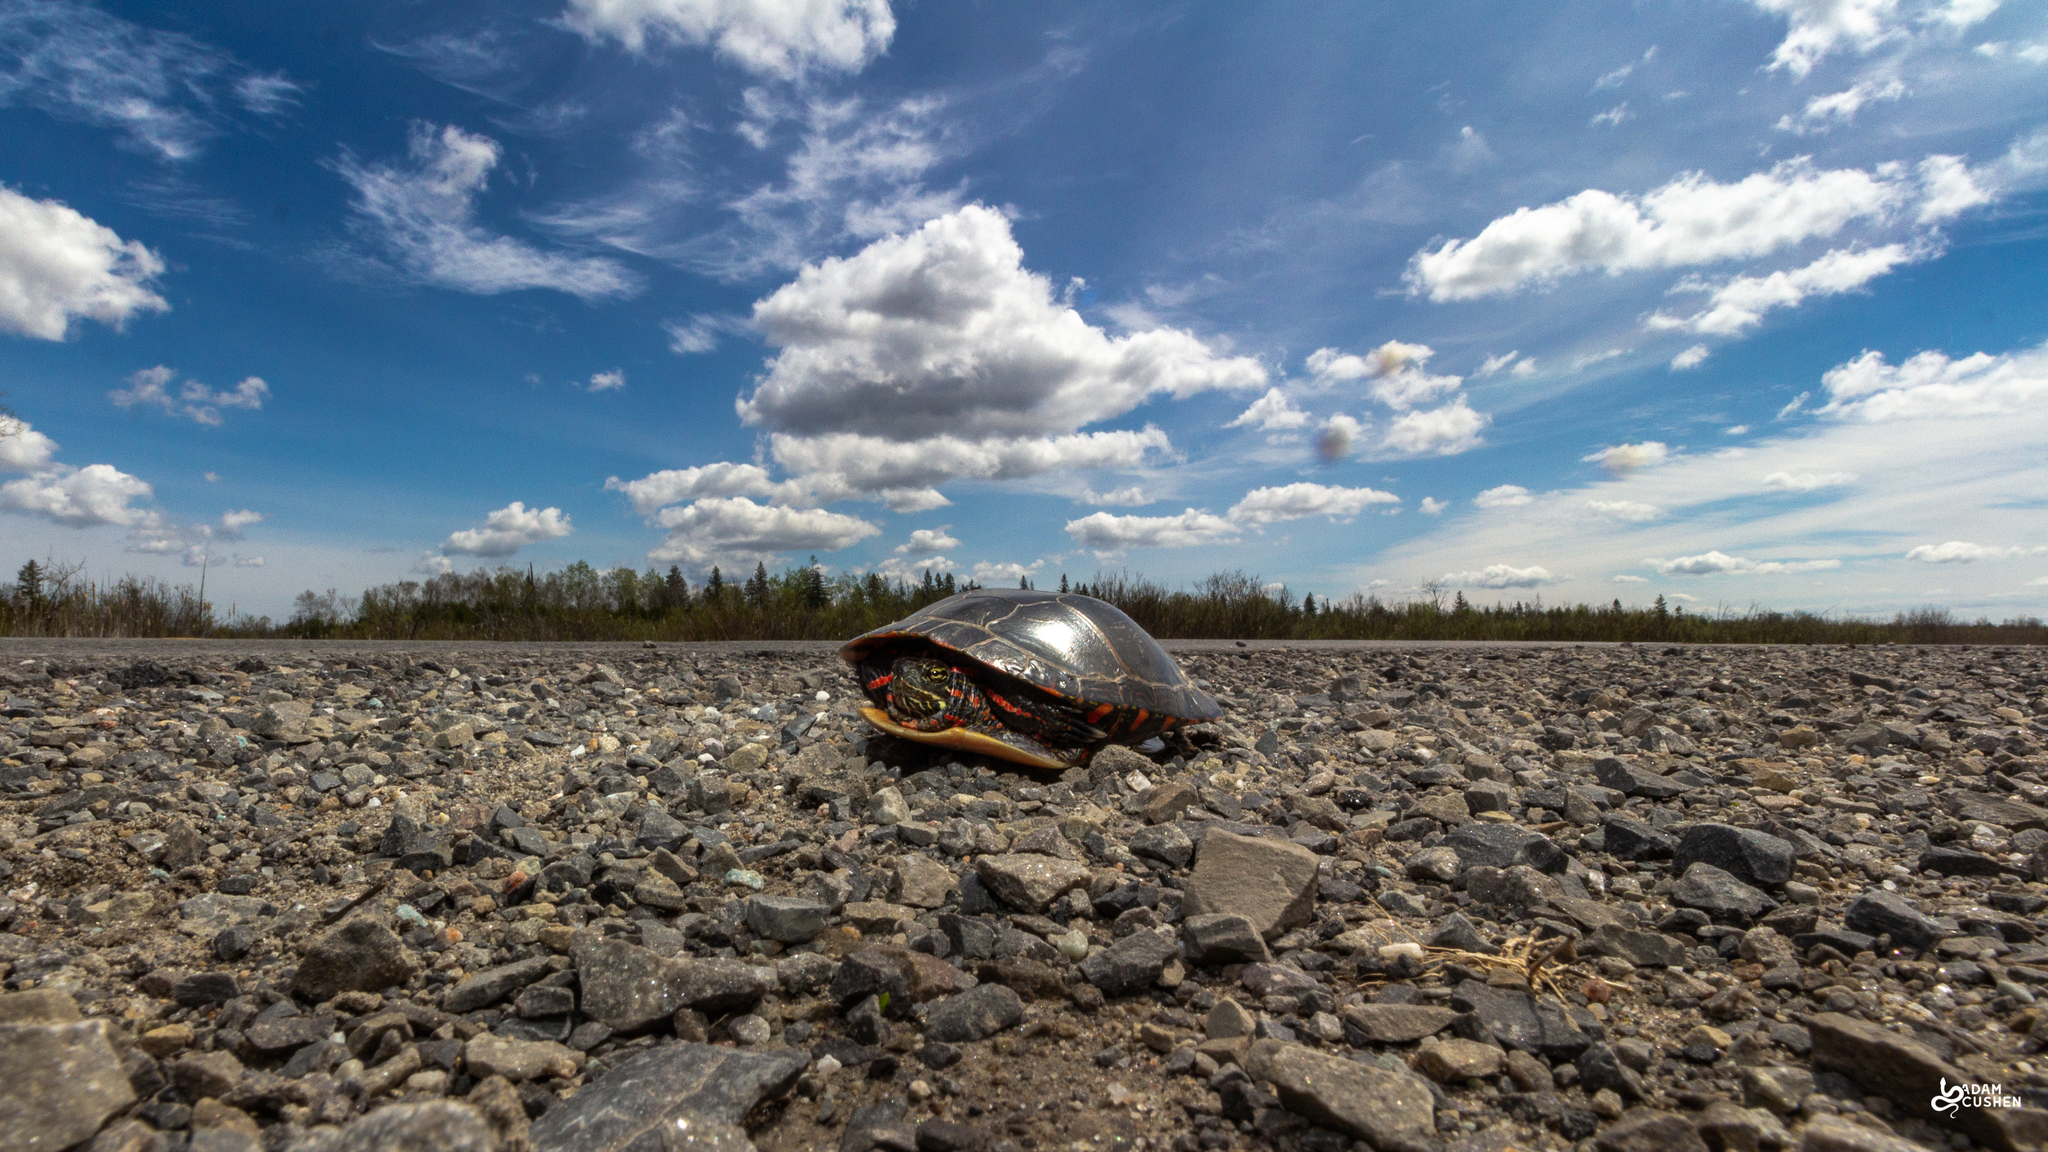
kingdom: Animalia
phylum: Chordata
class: Testudines
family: Emydidae
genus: Chrysemys
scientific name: Chrysemys picta
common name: Painted turtle
